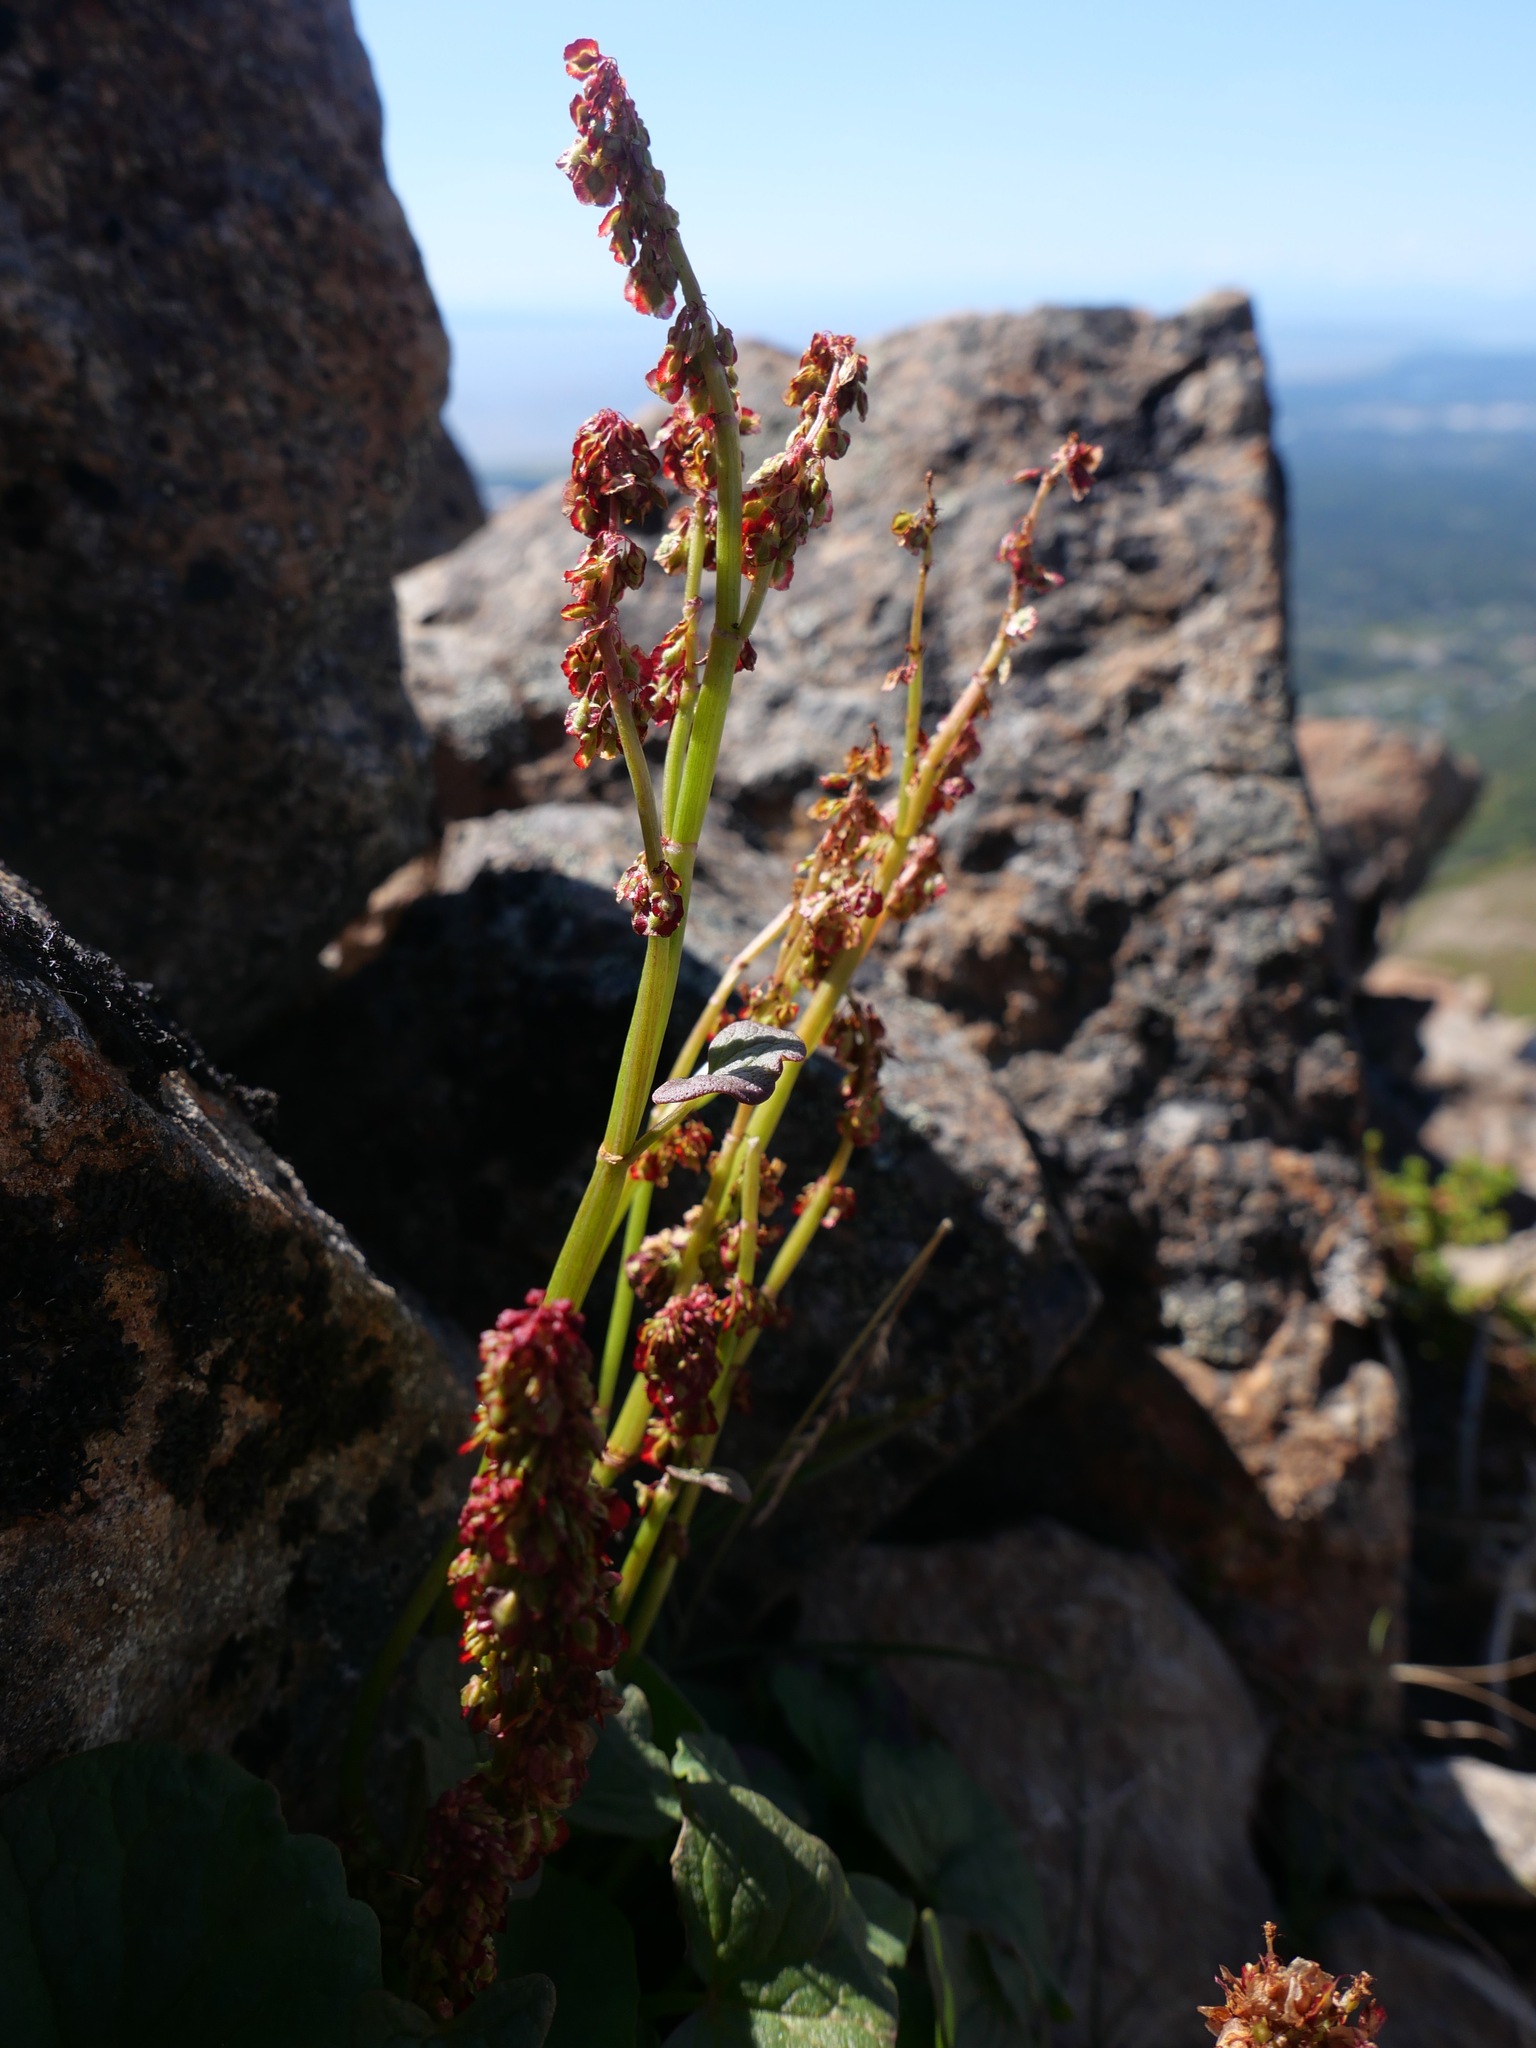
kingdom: Plantae
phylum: Tracheophyta
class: Magnoliopsida
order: Caryophyllales
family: Polygonaceae
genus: Oxyria
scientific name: Oxyria digyna
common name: Alpine mountain-sorrel
